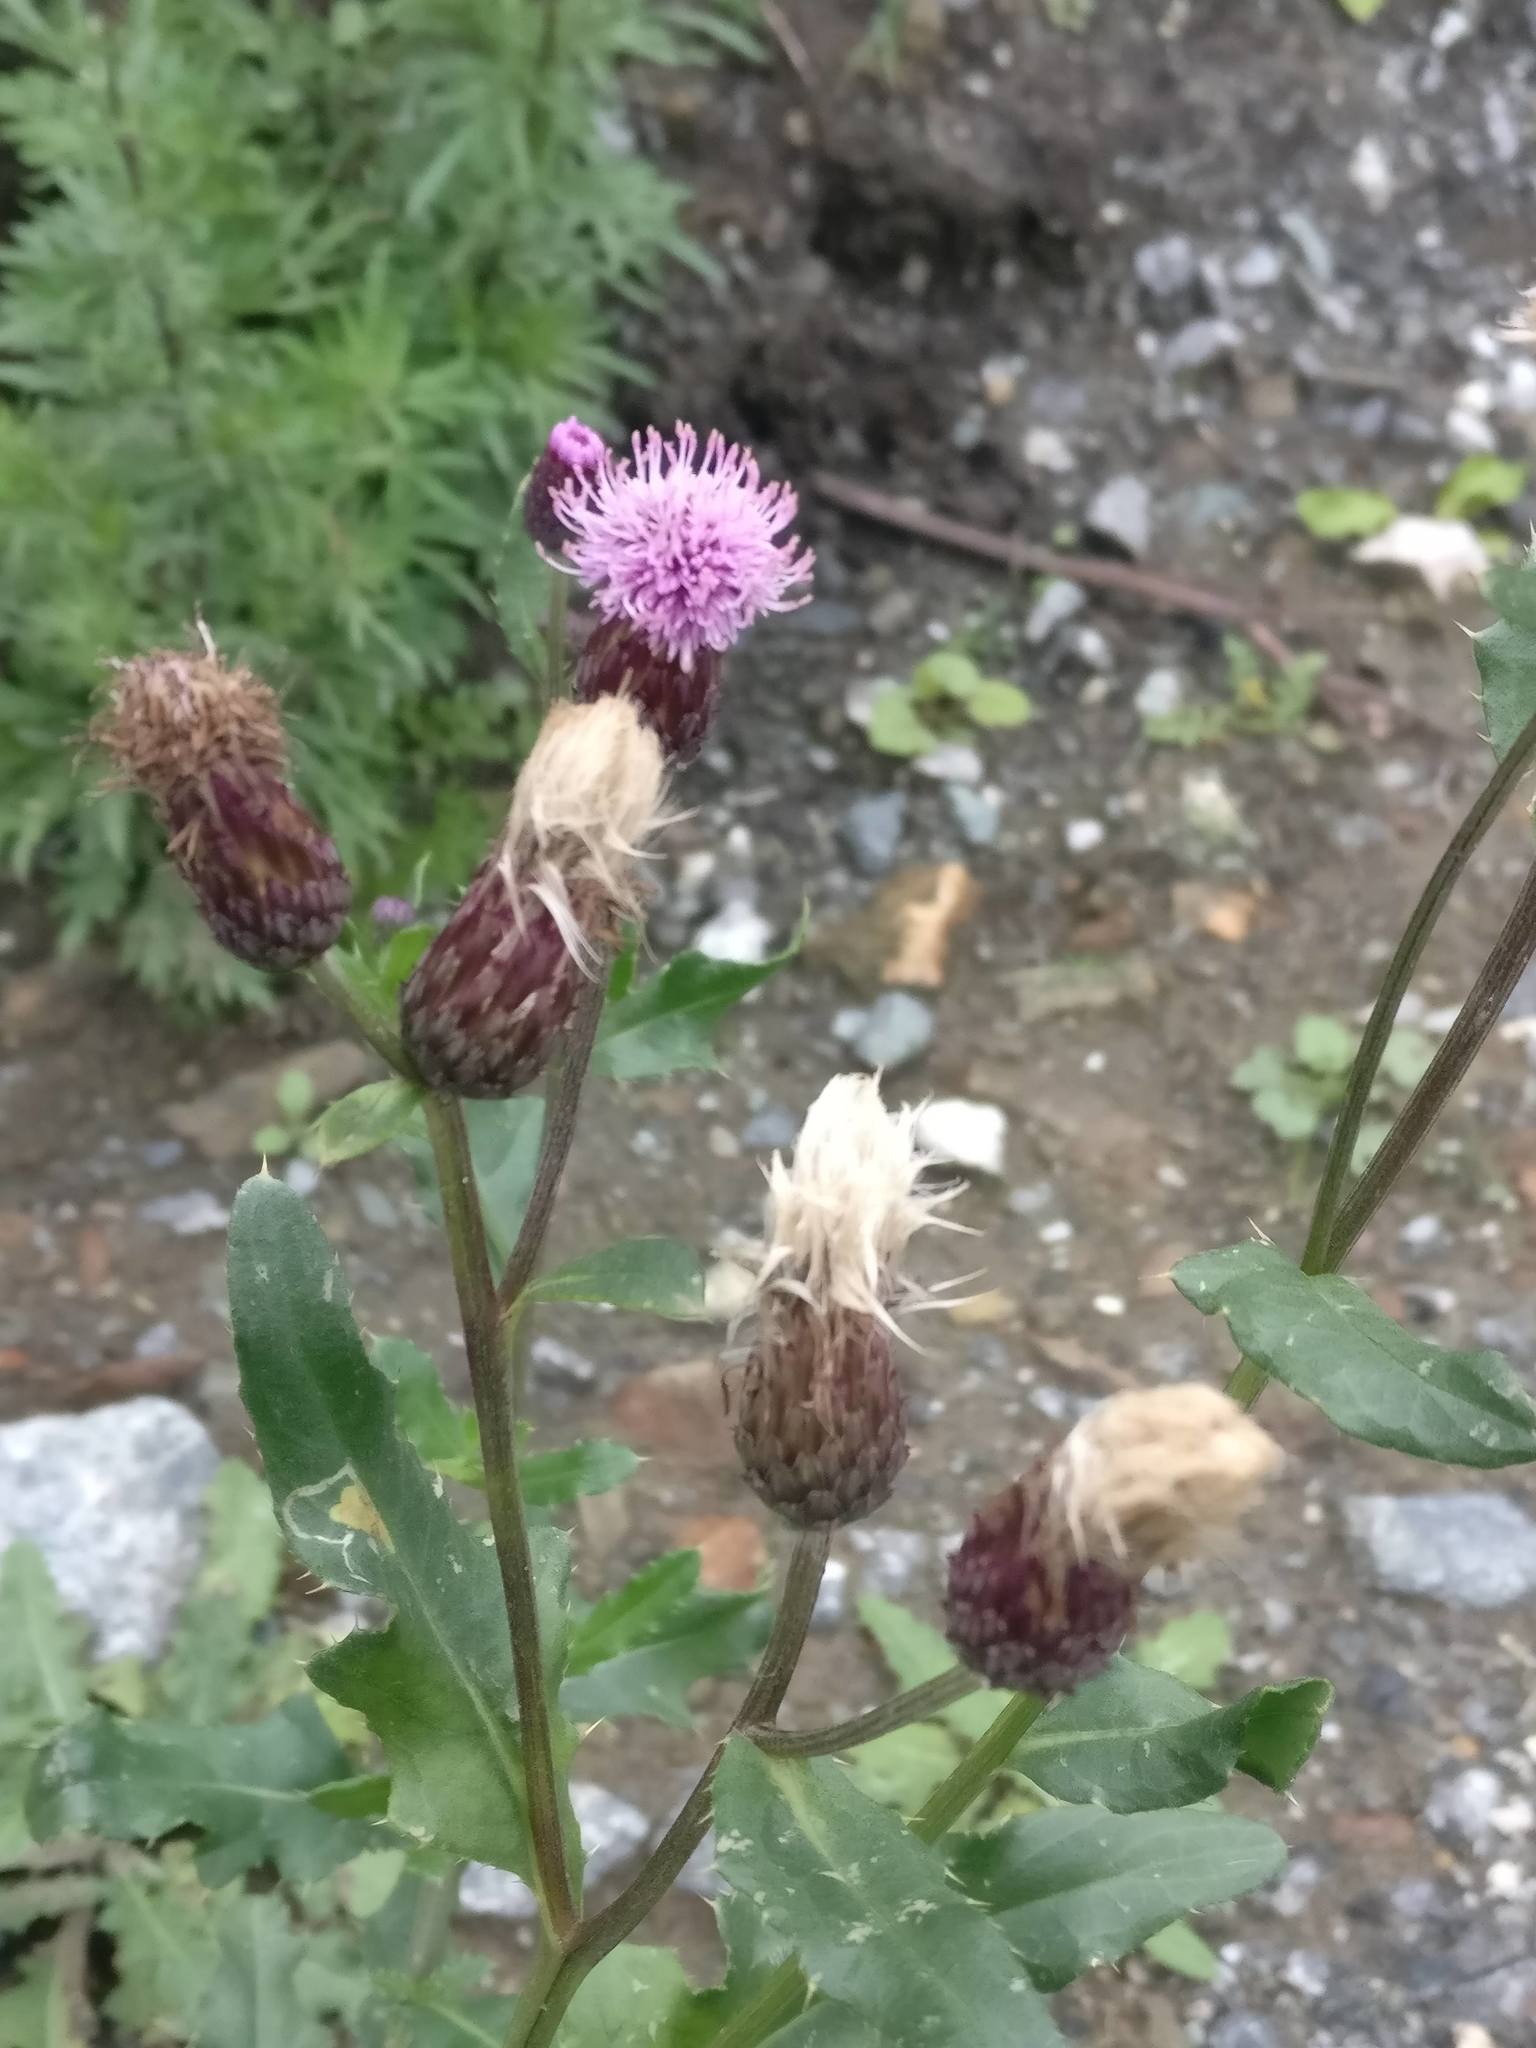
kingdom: Plantae
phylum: Tracheophyta
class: Magnoliopsida
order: Asterales
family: Asteraceae
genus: Cirsium
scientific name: Cirsium arvense
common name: Creeping thistle
